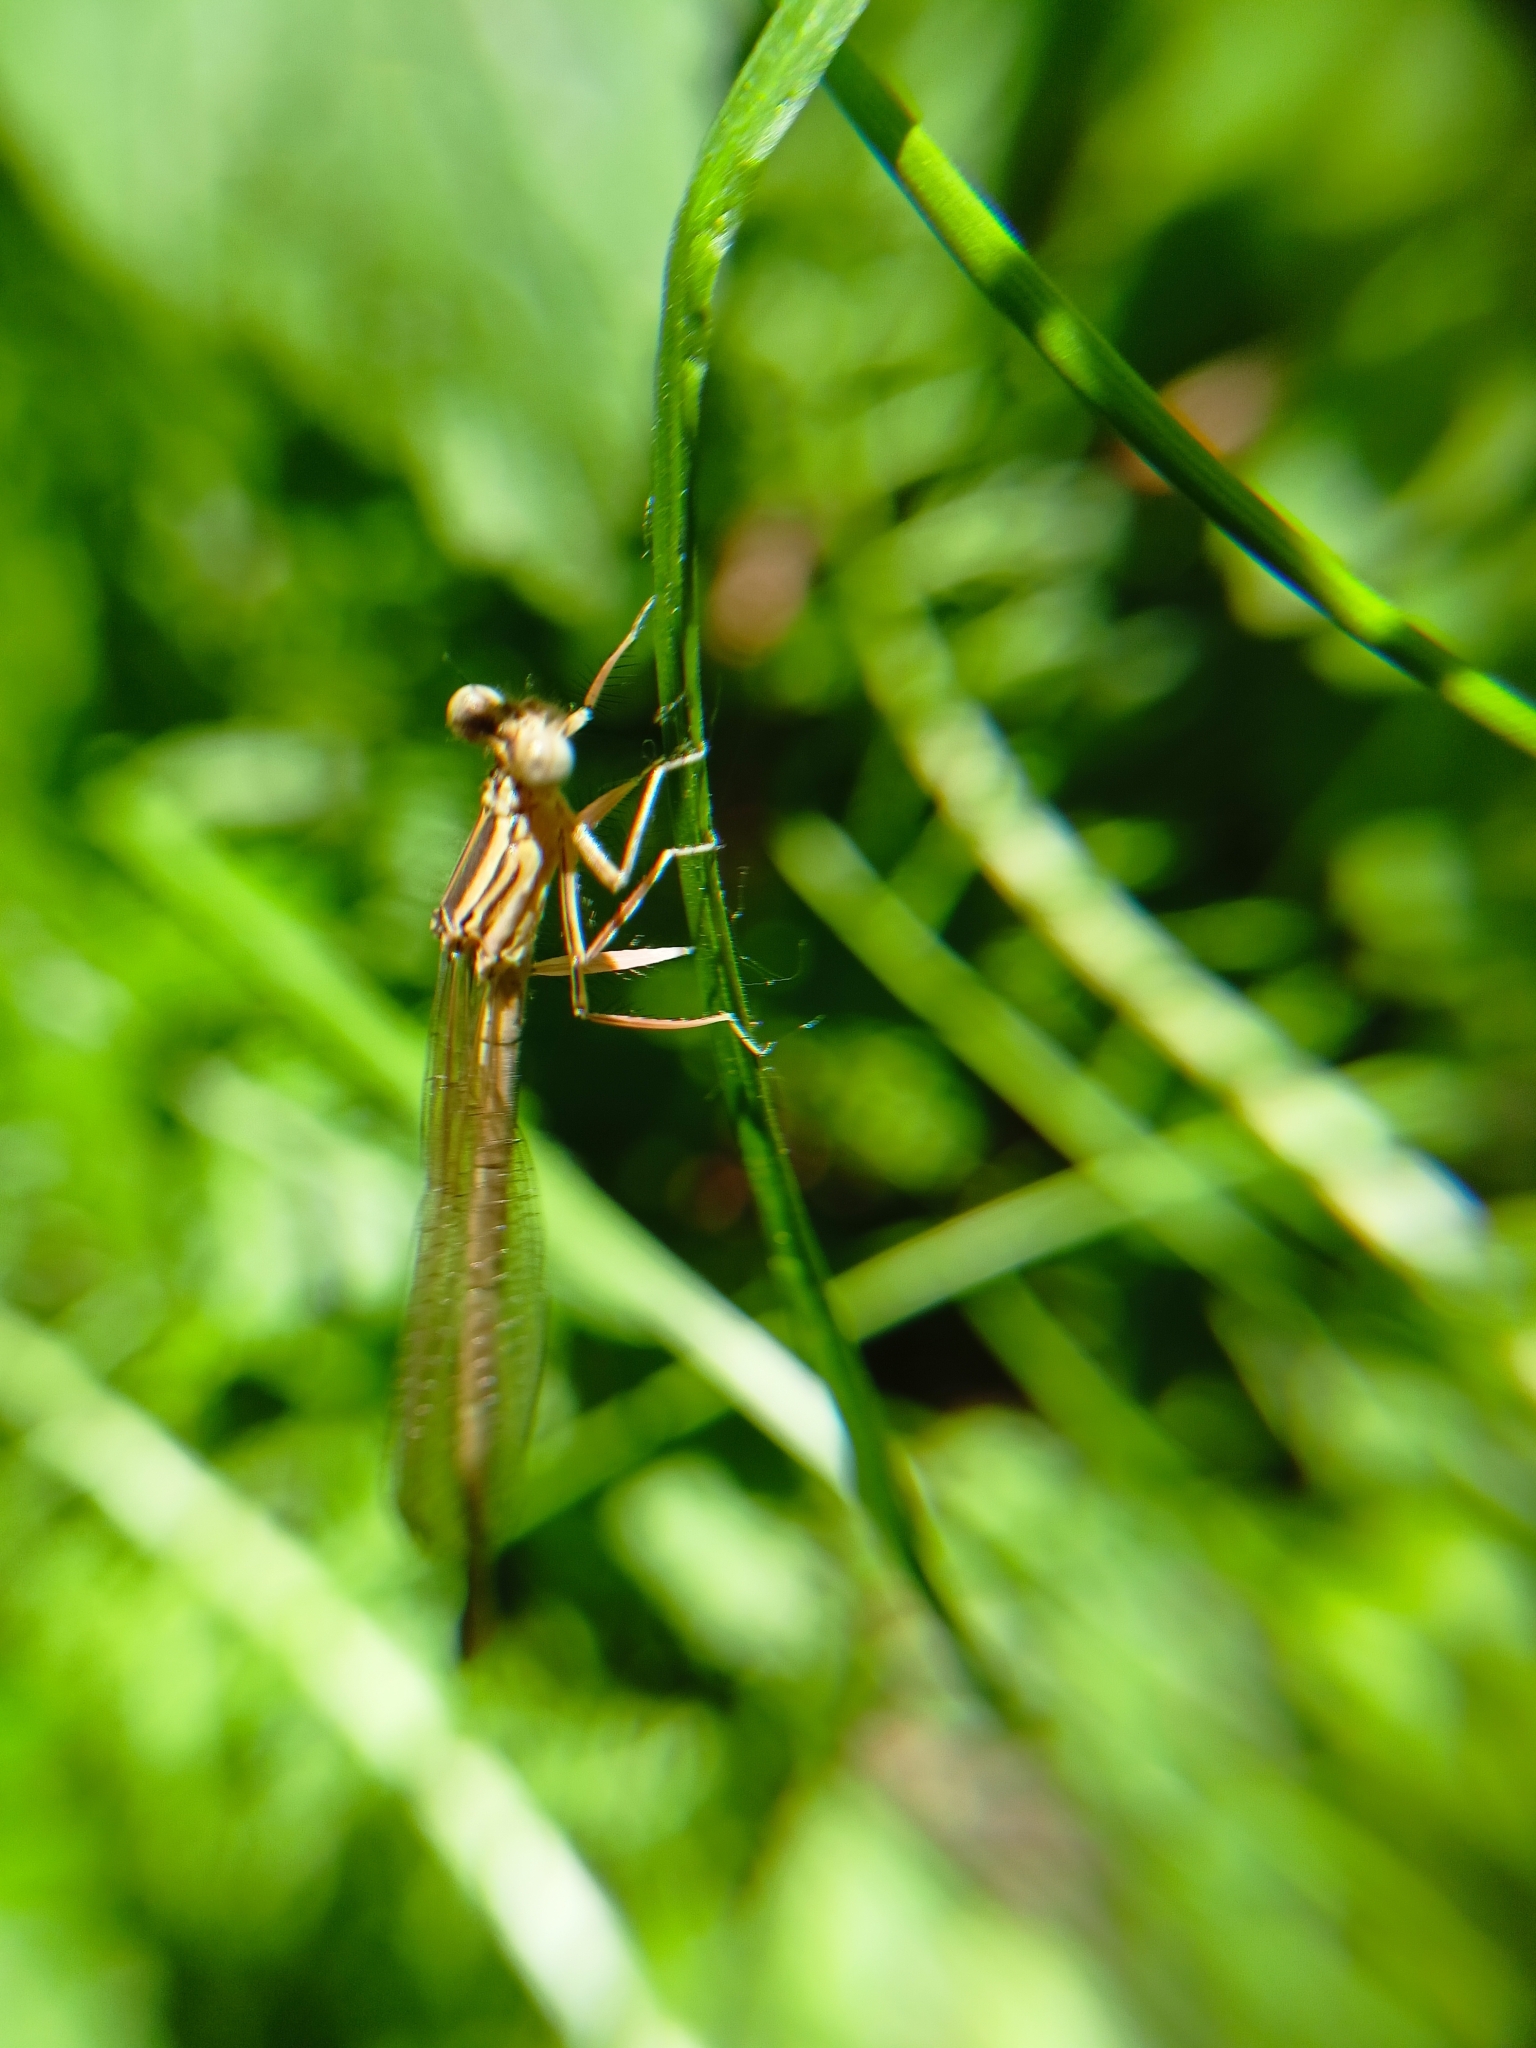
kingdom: Animalia
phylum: Arthropoda
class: Insecta
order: Odonata
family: Platycnemididae
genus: Platycnemis
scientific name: Platycnemis pennipes
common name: White-legged damselfly
